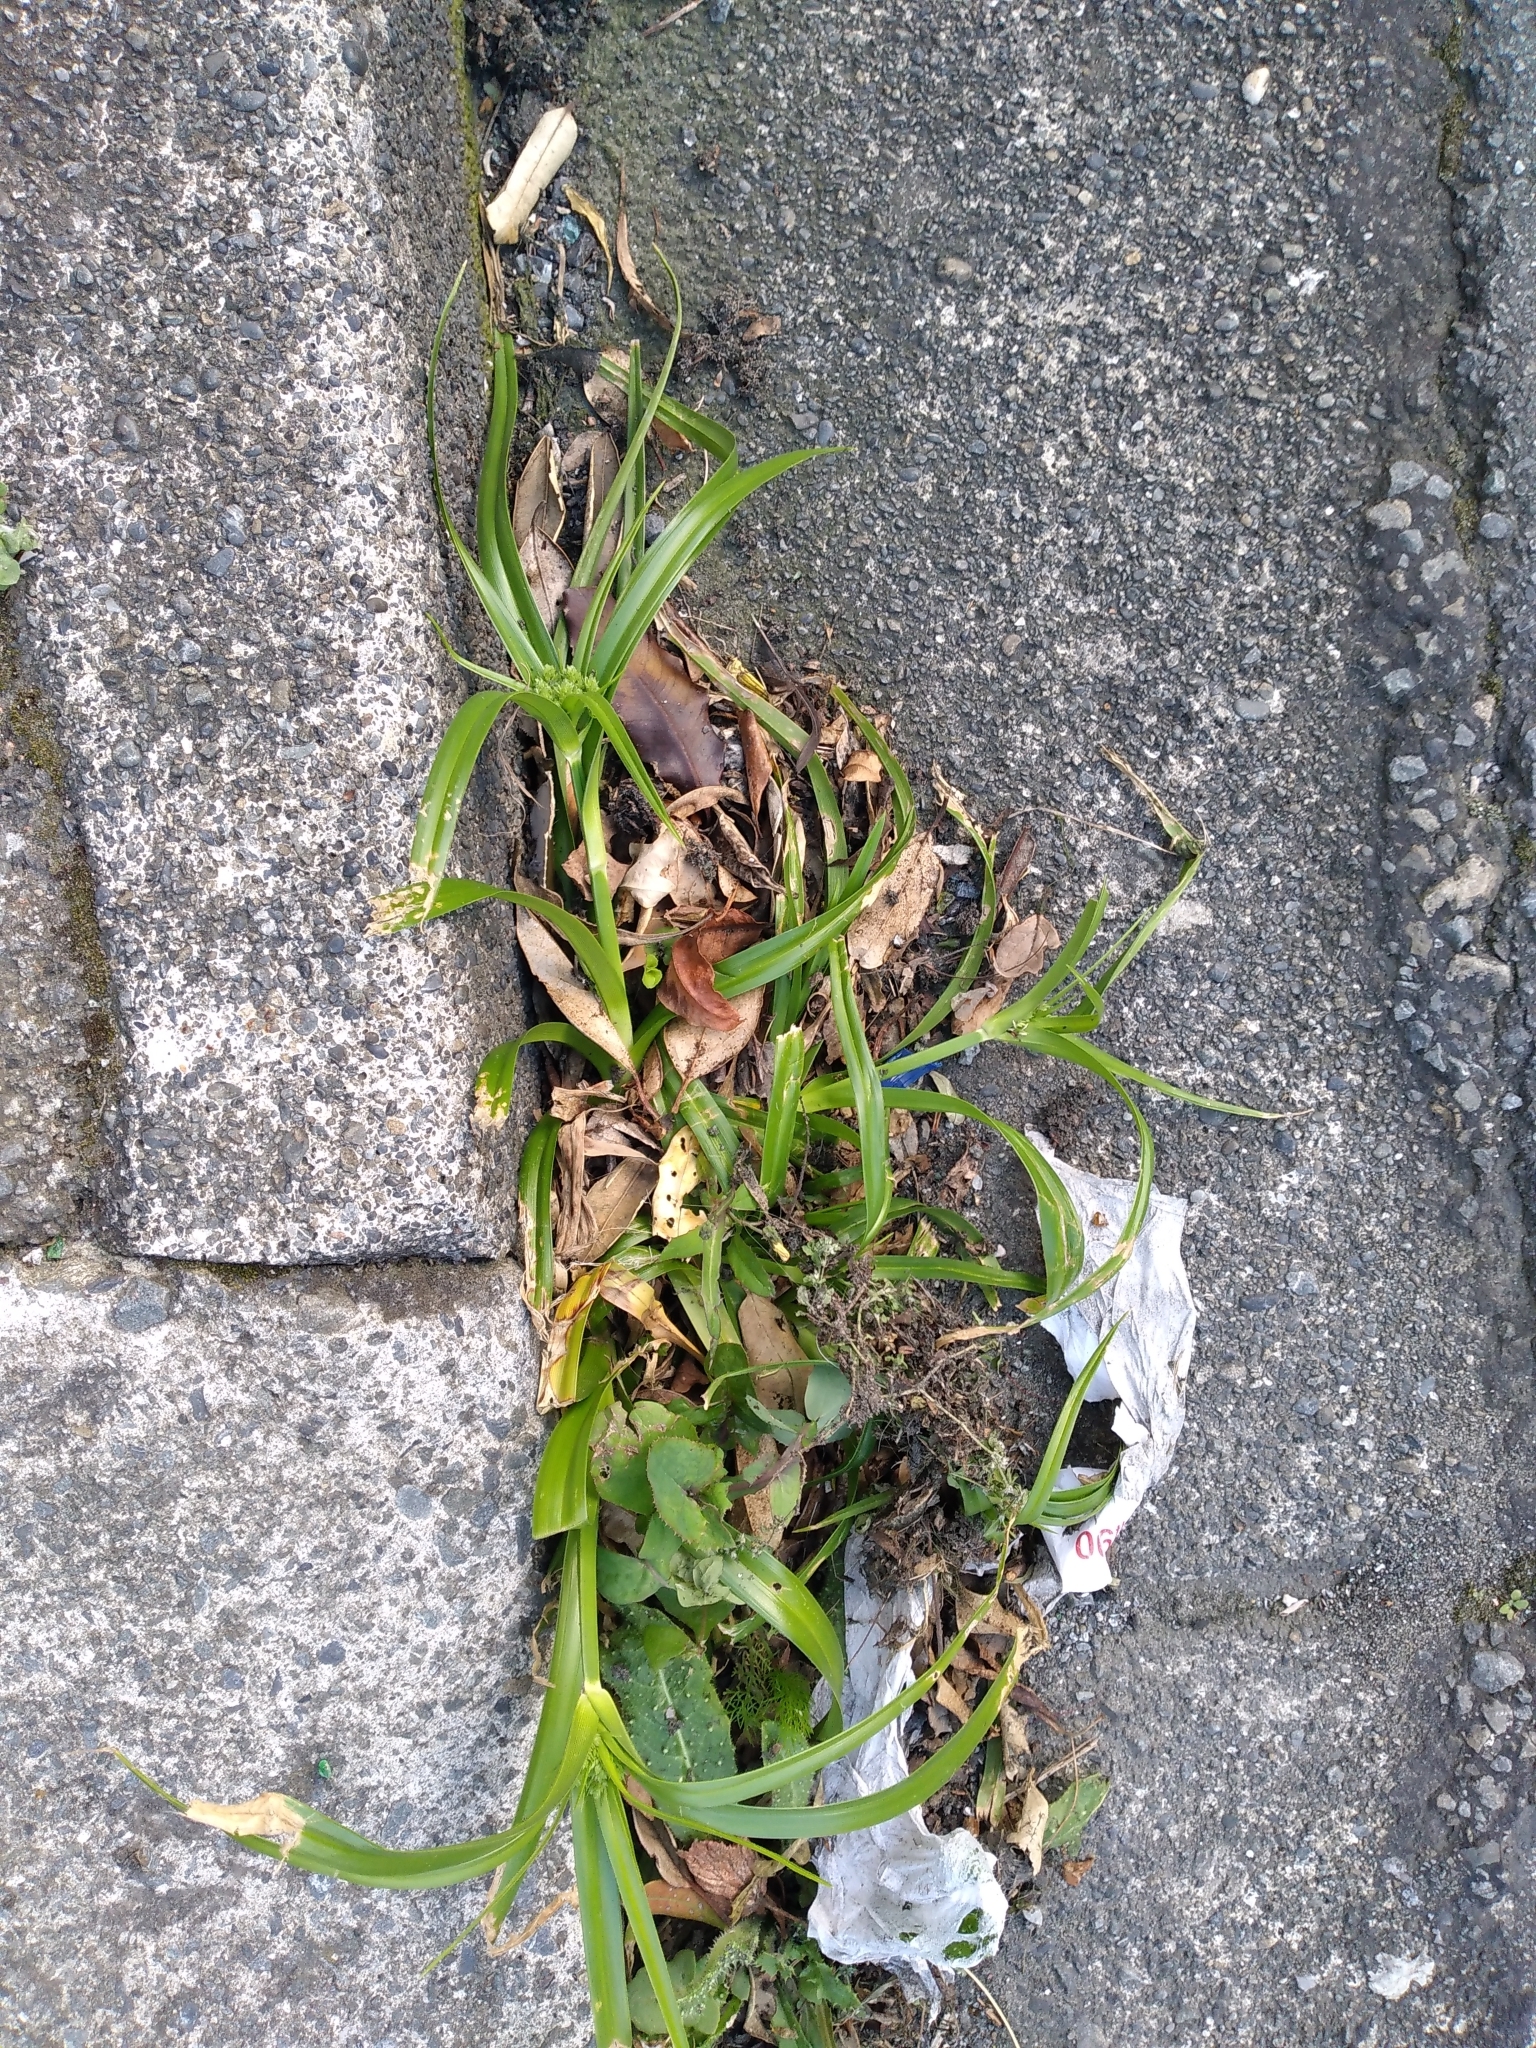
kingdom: Plantae
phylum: Tracheophyta
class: Liliopsida
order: Poales
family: Cyperaceae
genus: Cyperus
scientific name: Cyperus eragrostis
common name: Tall flatsedge
